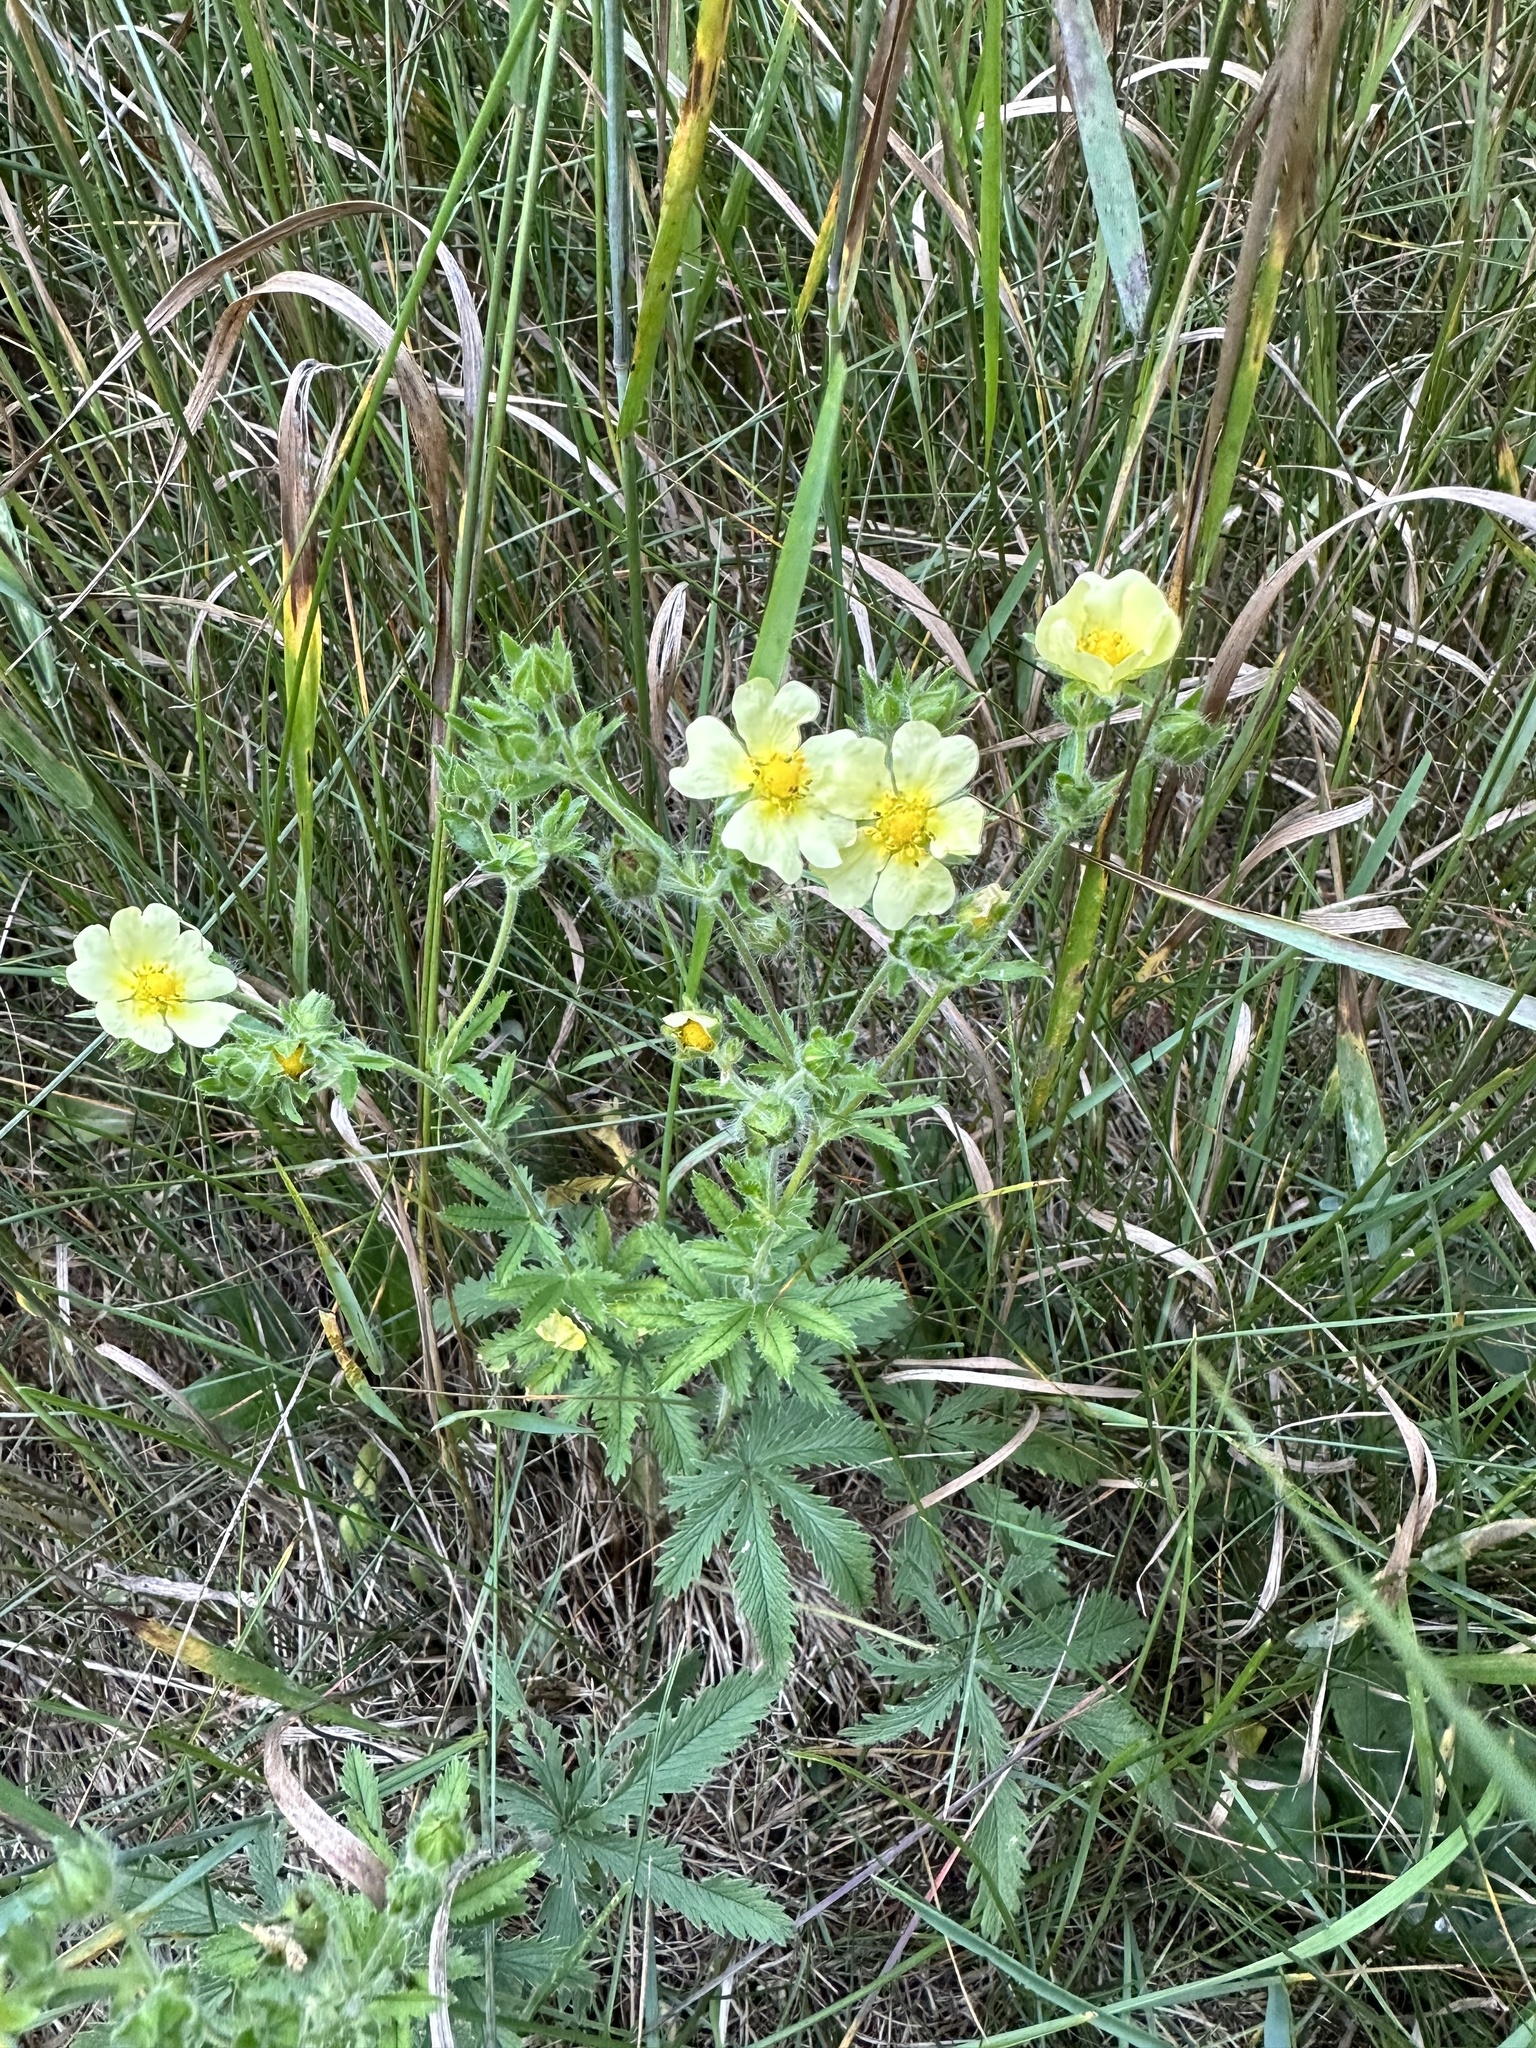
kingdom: Plantae
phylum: Tracheophyta
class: Magnoliopsida
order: Rosales
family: Rosaceae
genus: Potentilla
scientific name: Potentilla recta
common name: Sulphur cinquefoil
